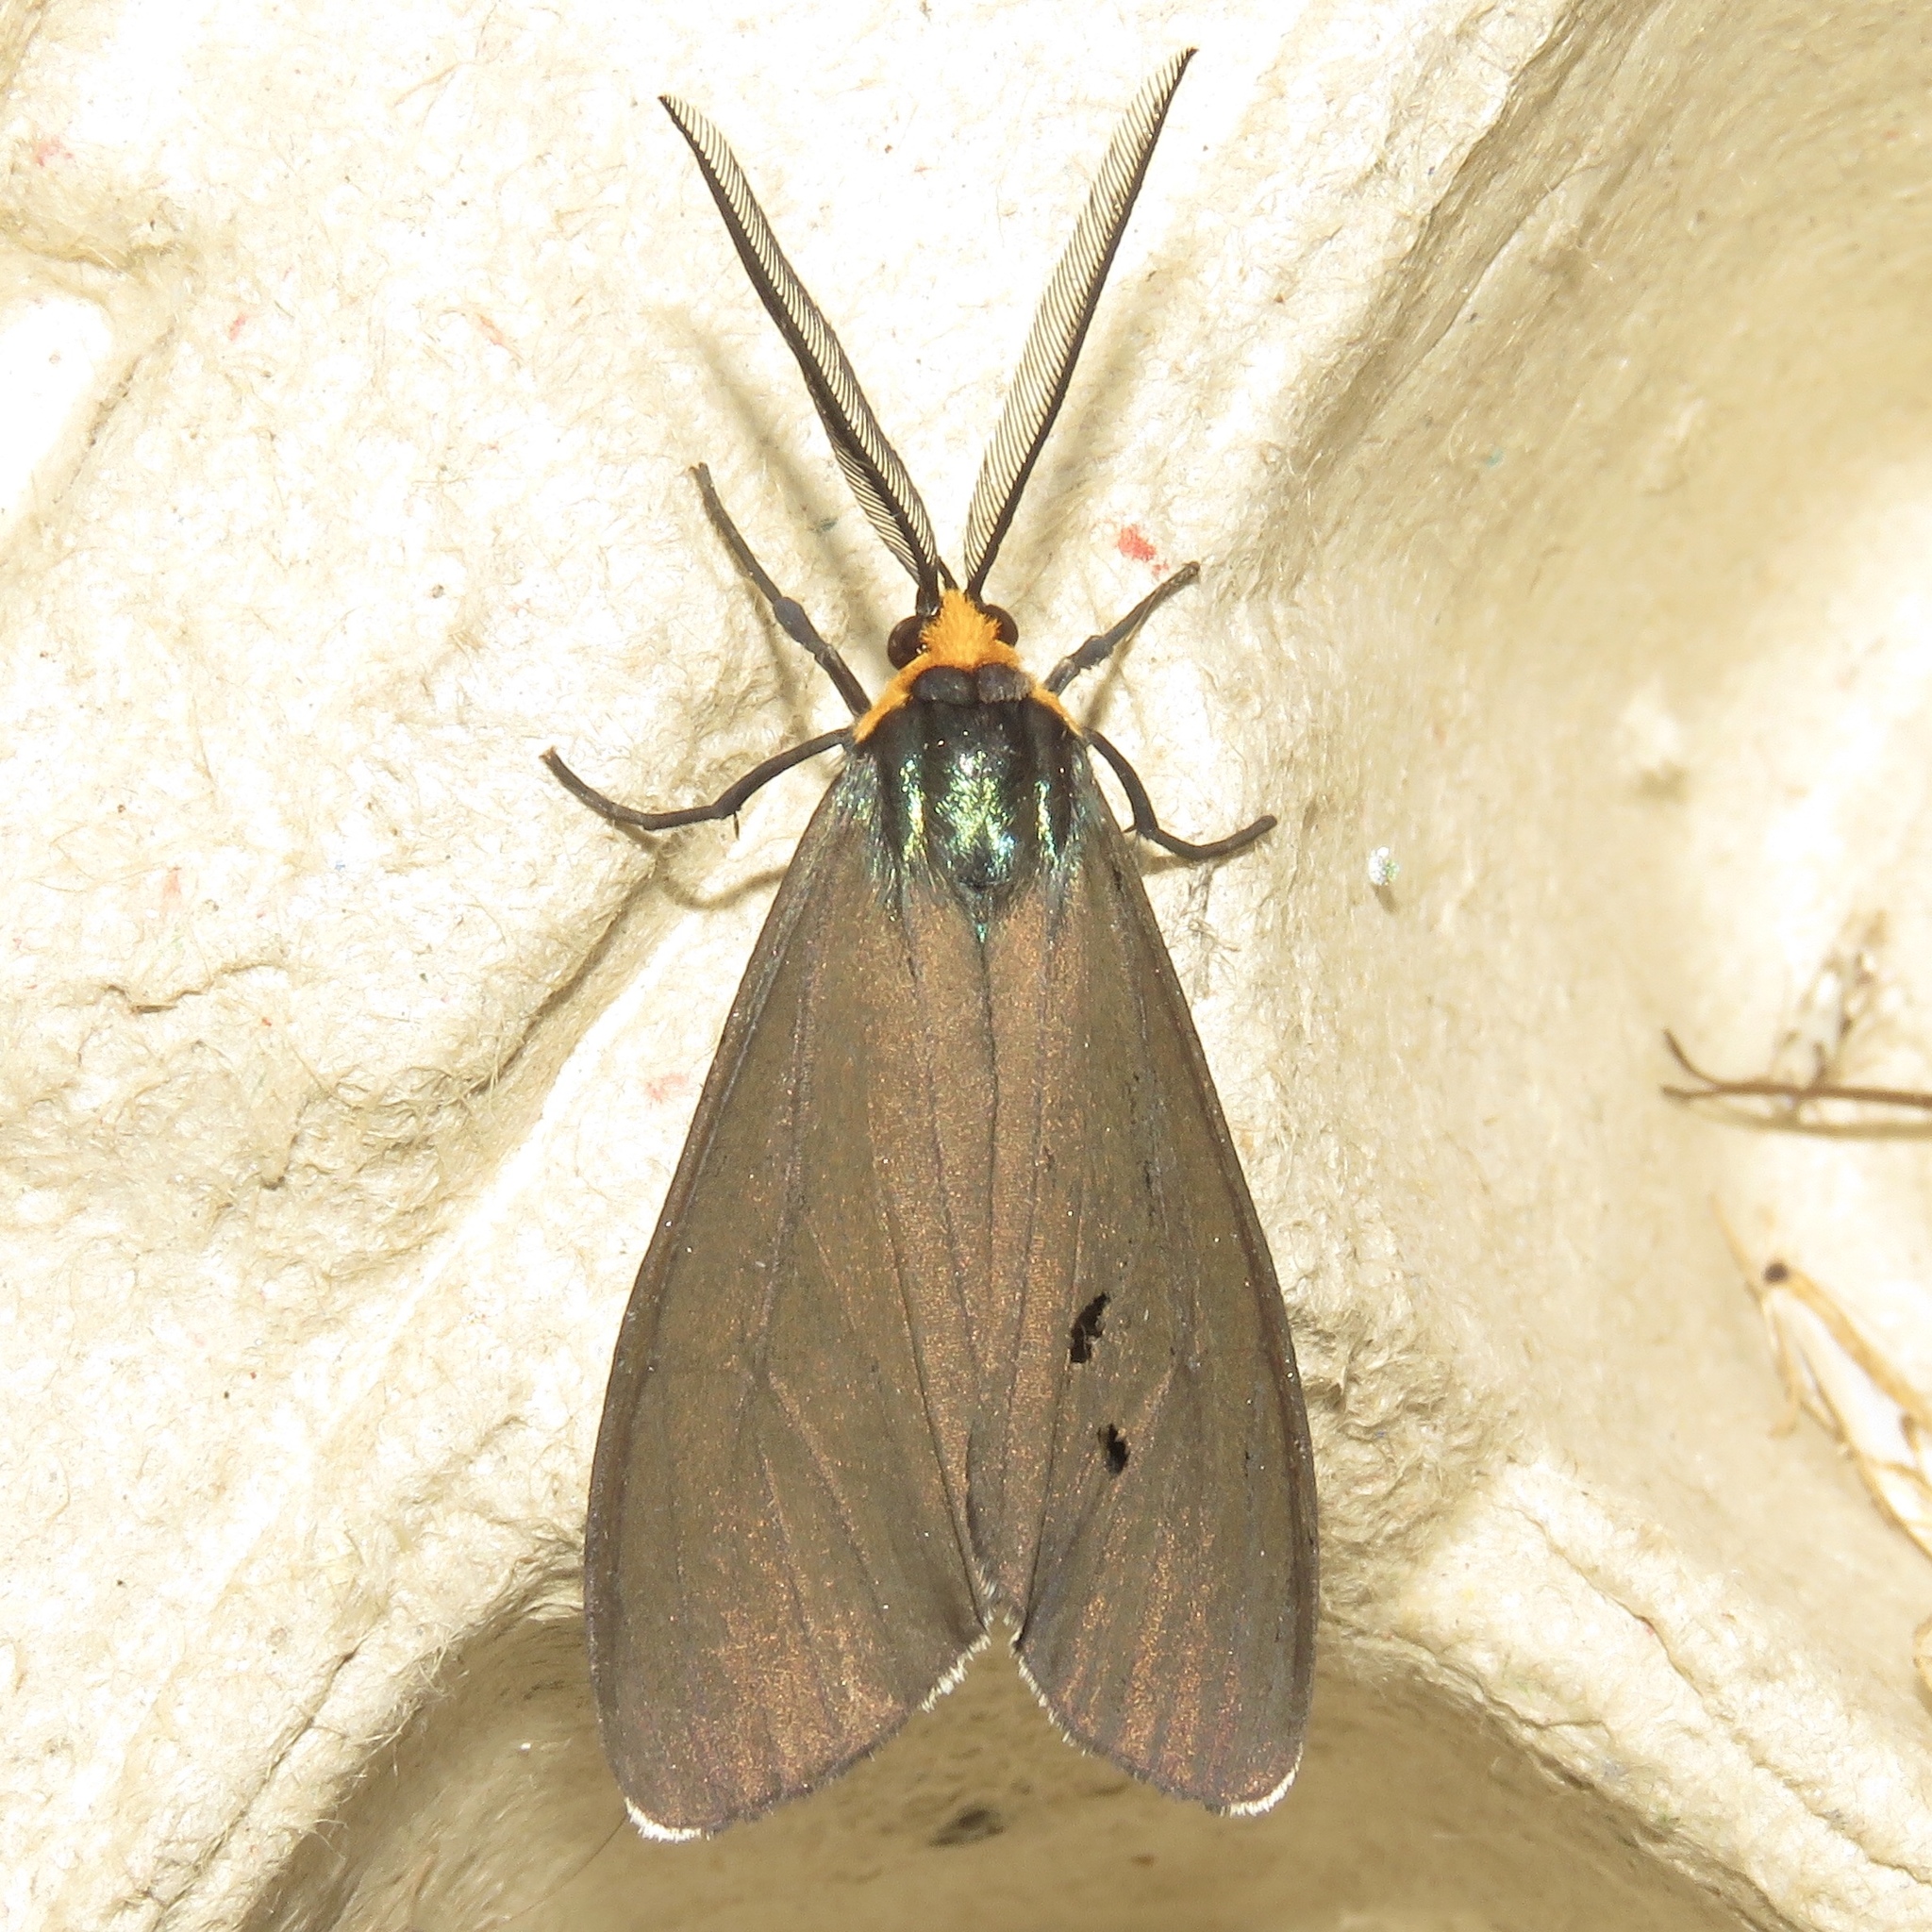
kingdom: Animalia
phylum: Arthropoda
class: Insecta
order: Lepidoptera
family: Erebidae
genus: Ctenucha
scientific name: Ctenucha virginica
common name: Virginia ctenucha moth
